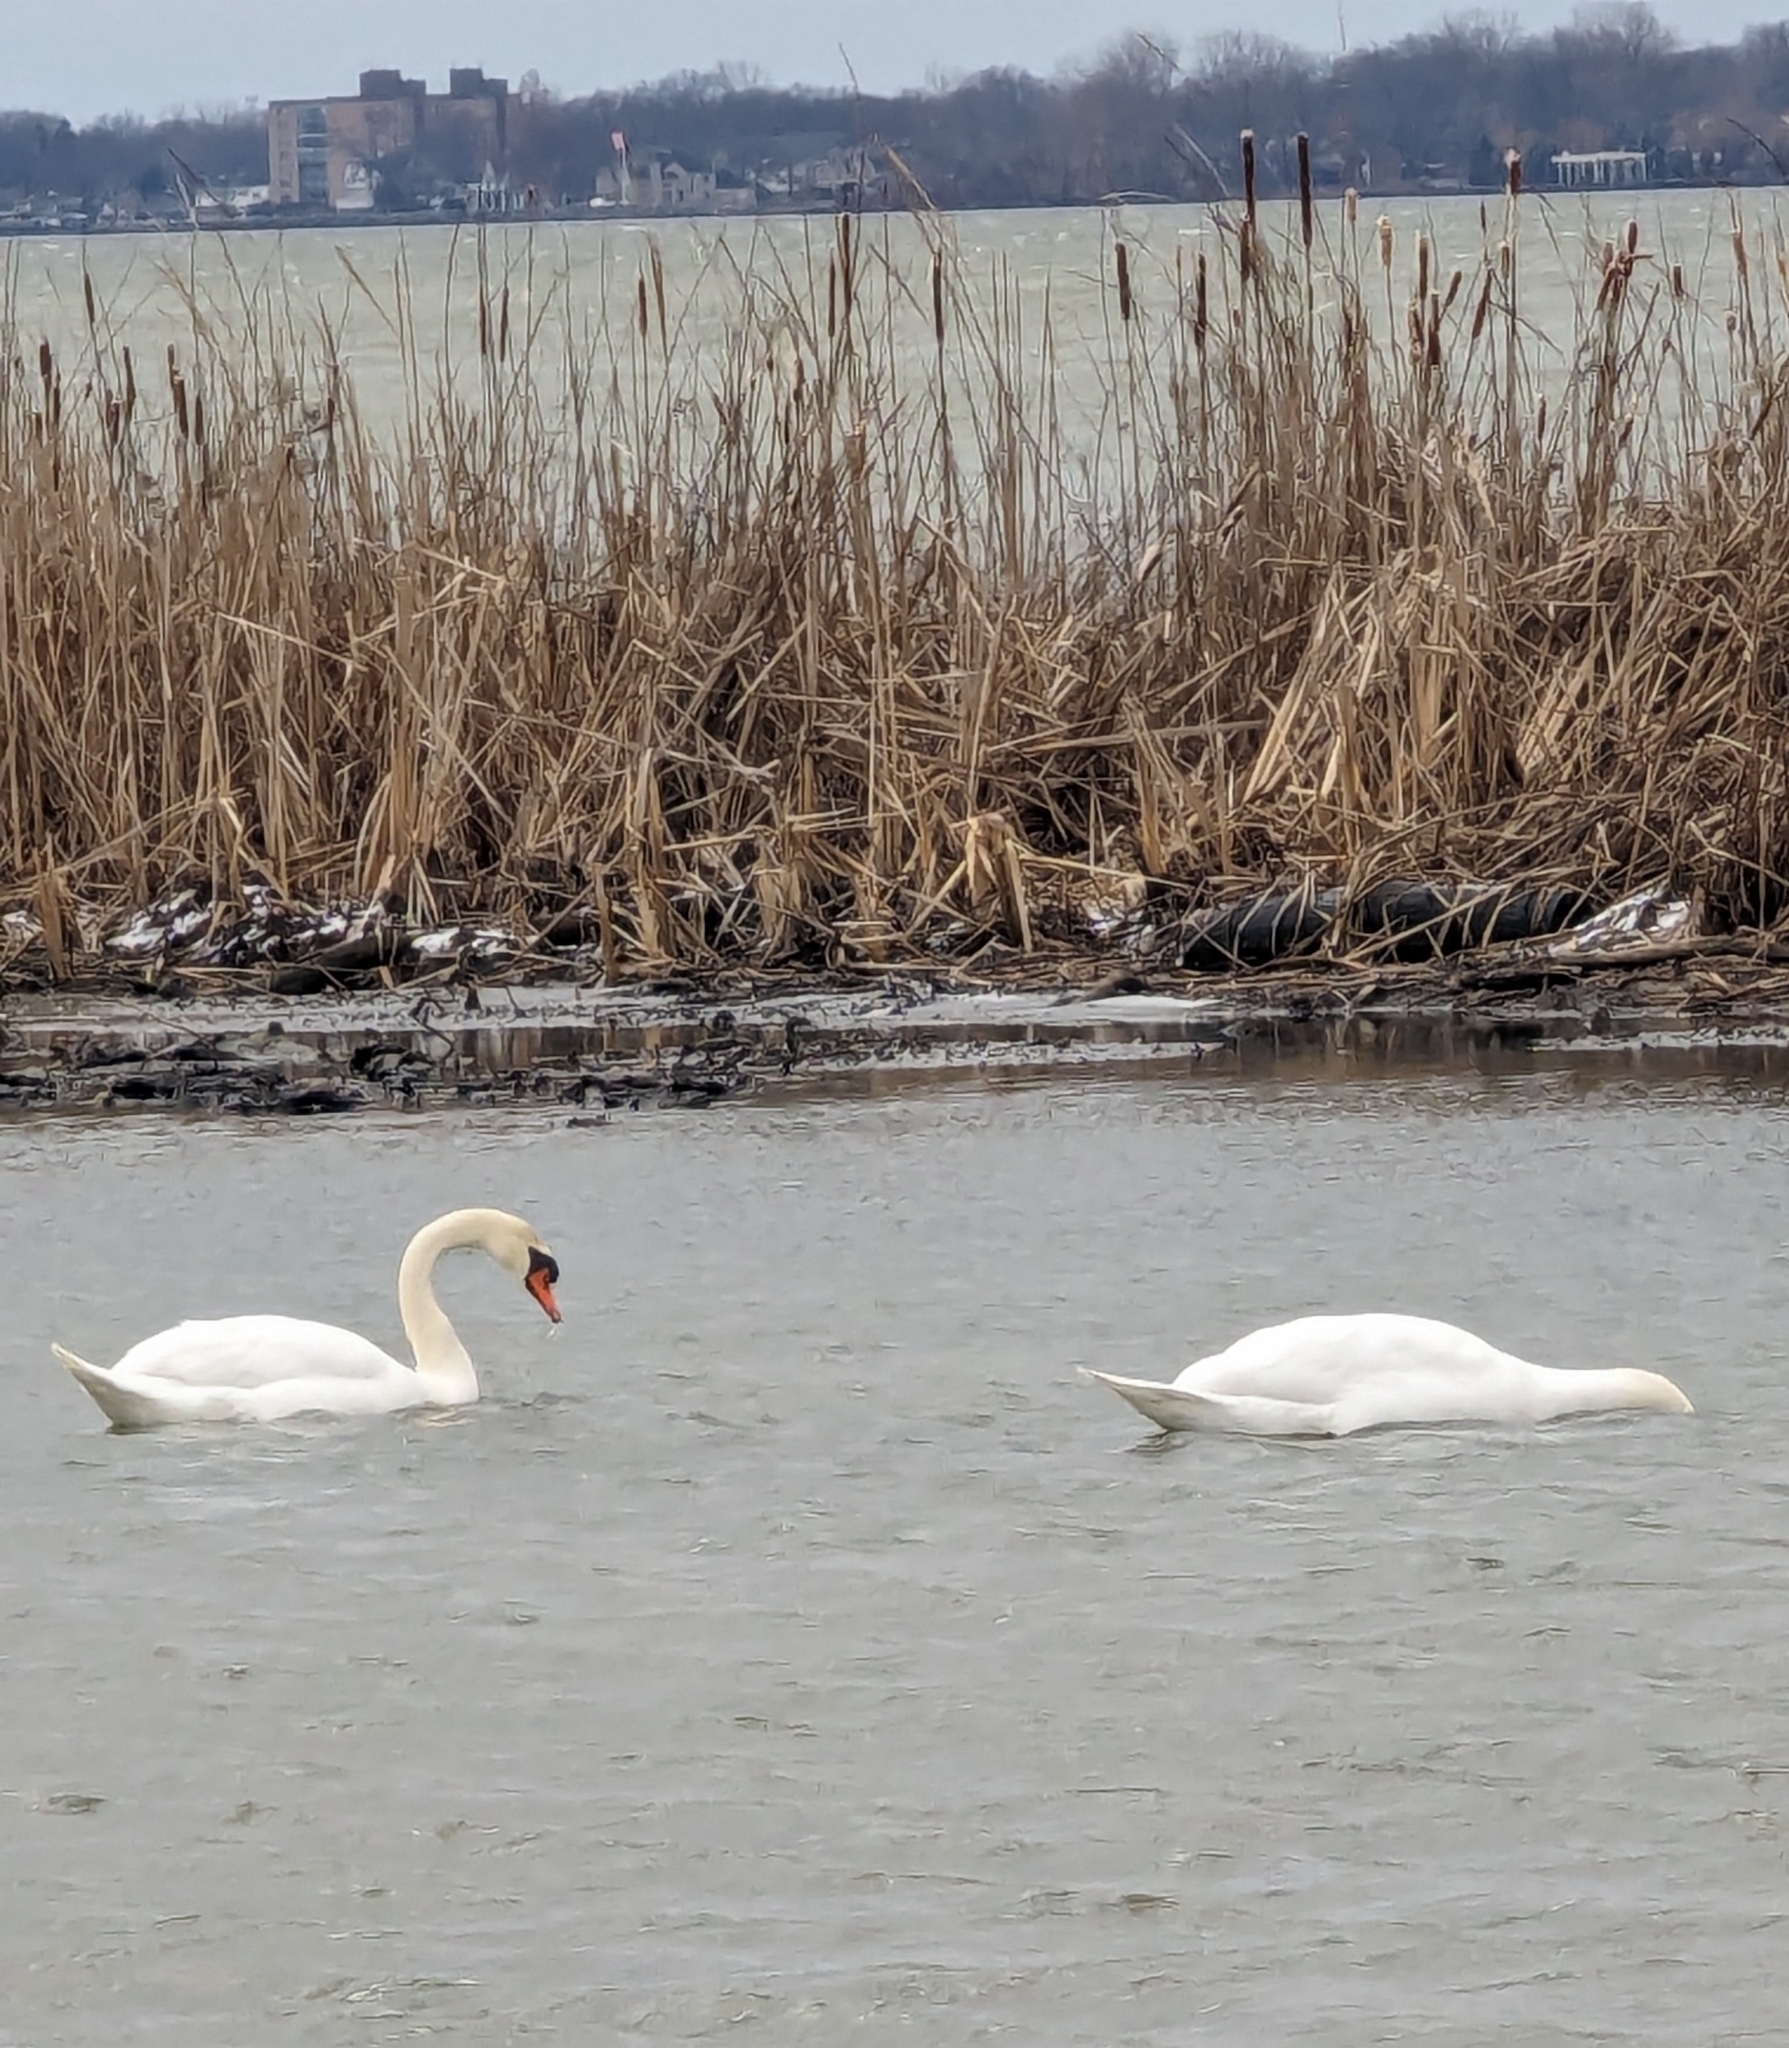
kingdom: Animalia
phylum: Chordata
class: Aves
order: Anseriformes
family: Anatidae
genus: Cygnus
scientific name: Cygnus olor
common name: Mute swan
